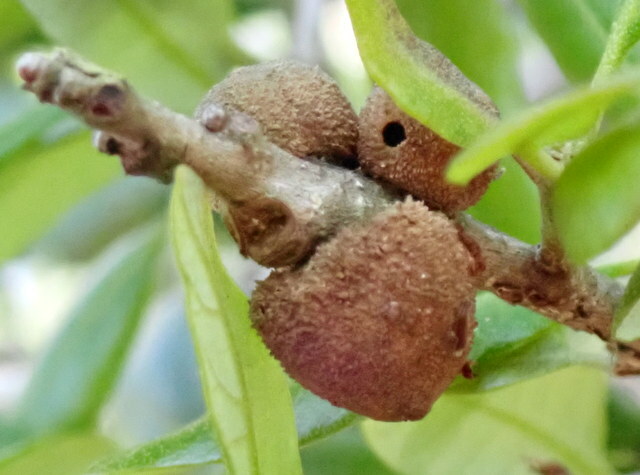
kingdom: Animalia
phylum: Arthropoda
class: Insecta
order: Hymenoptera
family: Cynipidae
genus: Disholcaspis
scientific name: Disholcaspis
